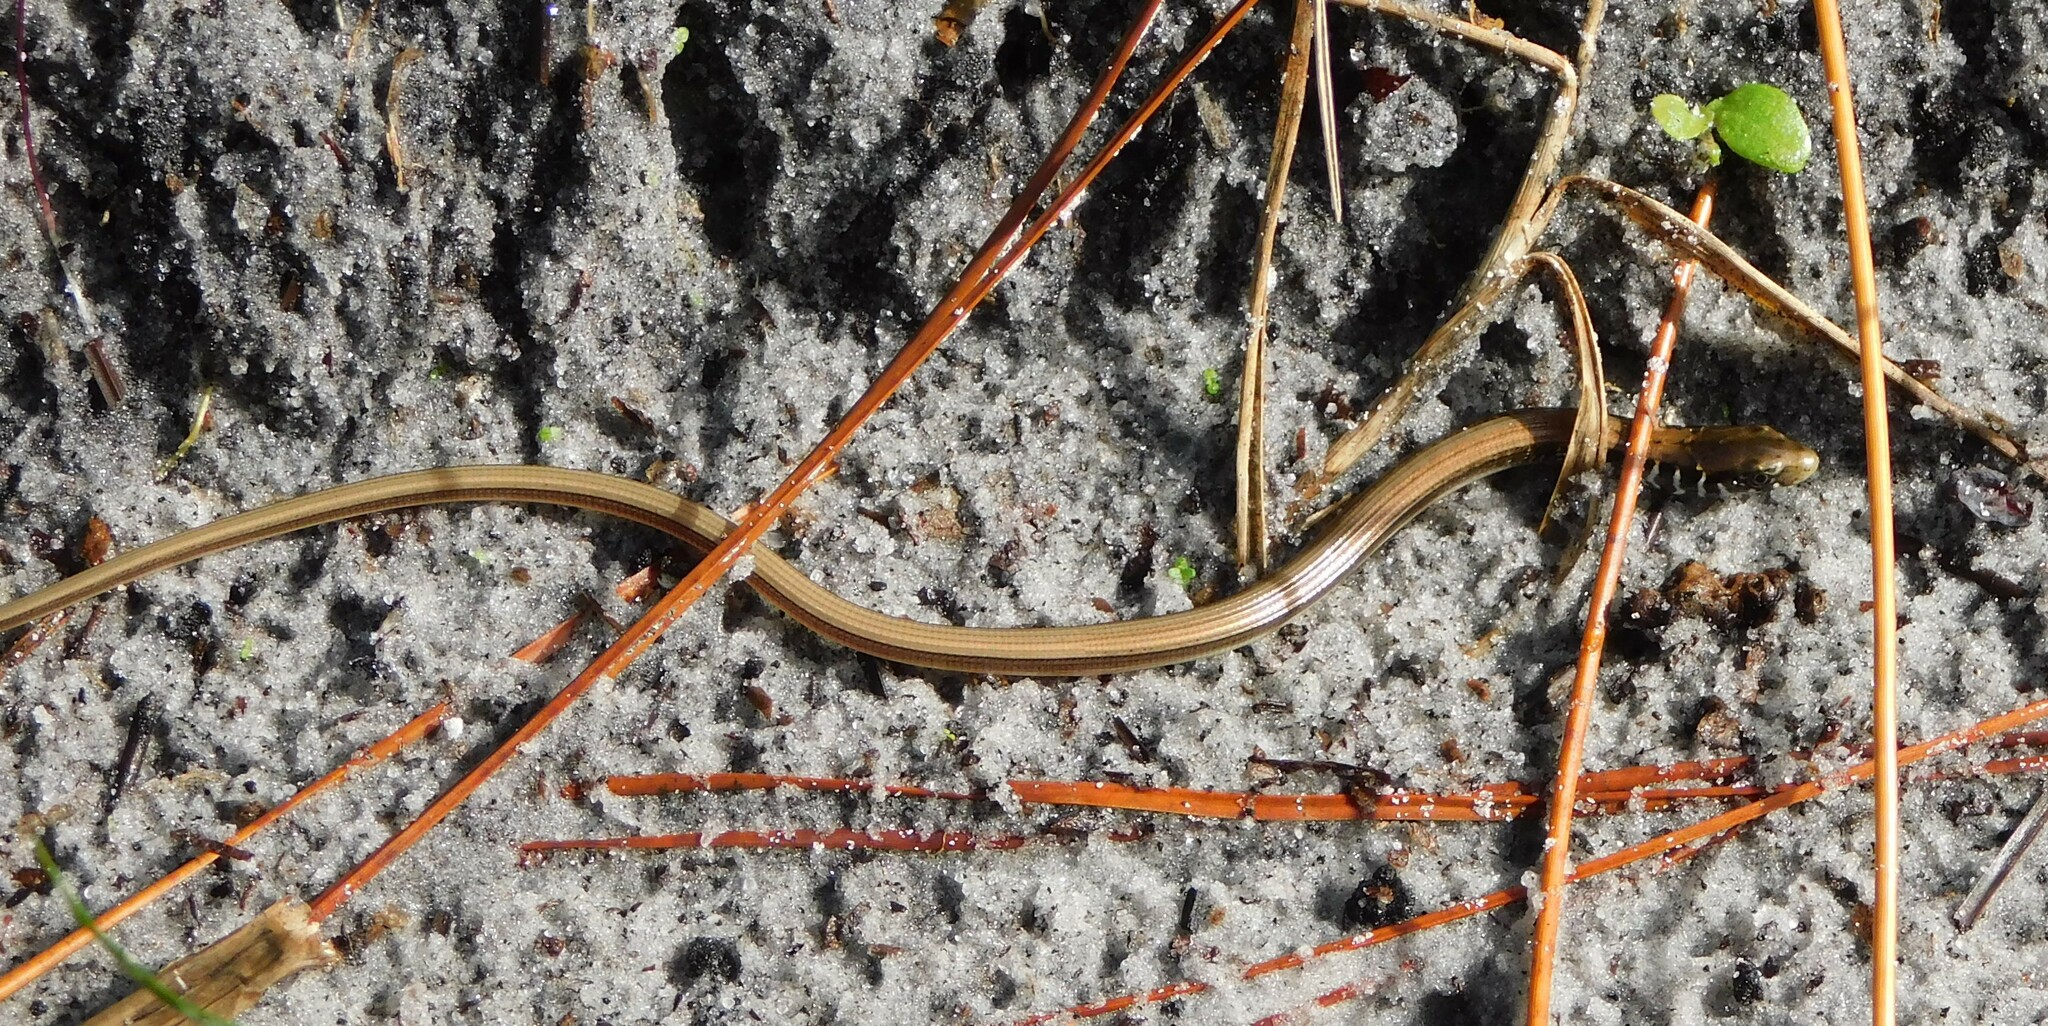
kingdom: Animalia
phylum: Chordata
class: Squamata
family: Anguidae
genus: Ophisaurus
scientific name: Ophisaurus attenuatus
